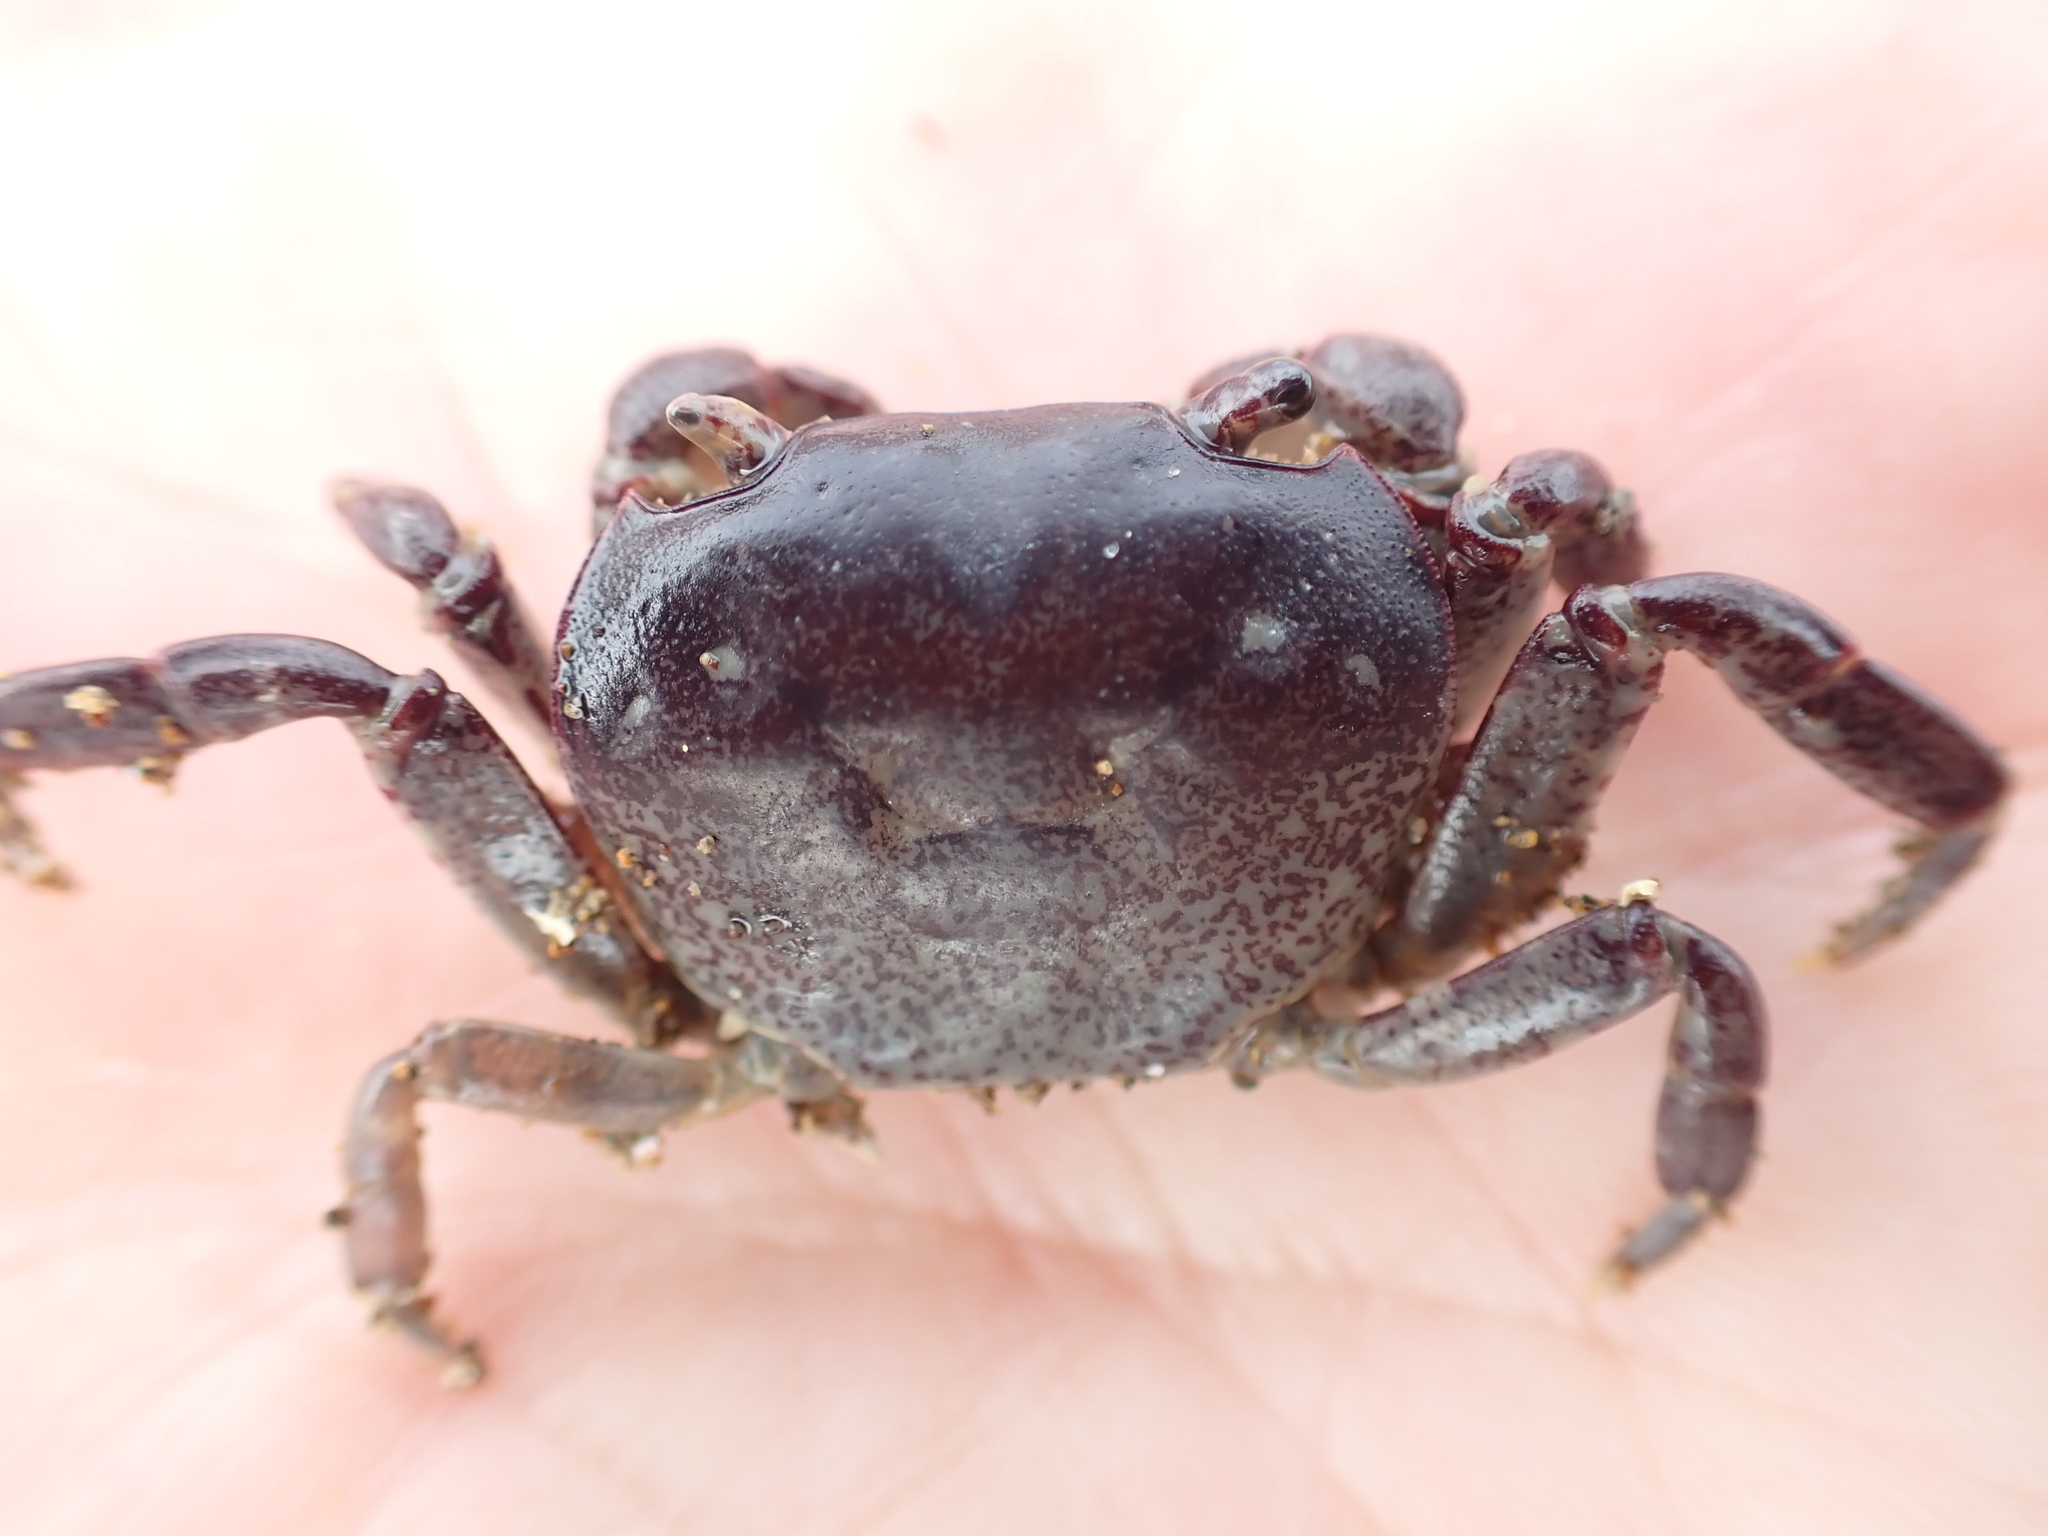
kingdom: Animalia
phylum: Arthropoda
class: Malacostraca
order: Decapoda
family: Varunidae
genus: Cyclograpsus
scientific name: Cyclograpsus lavauxi
